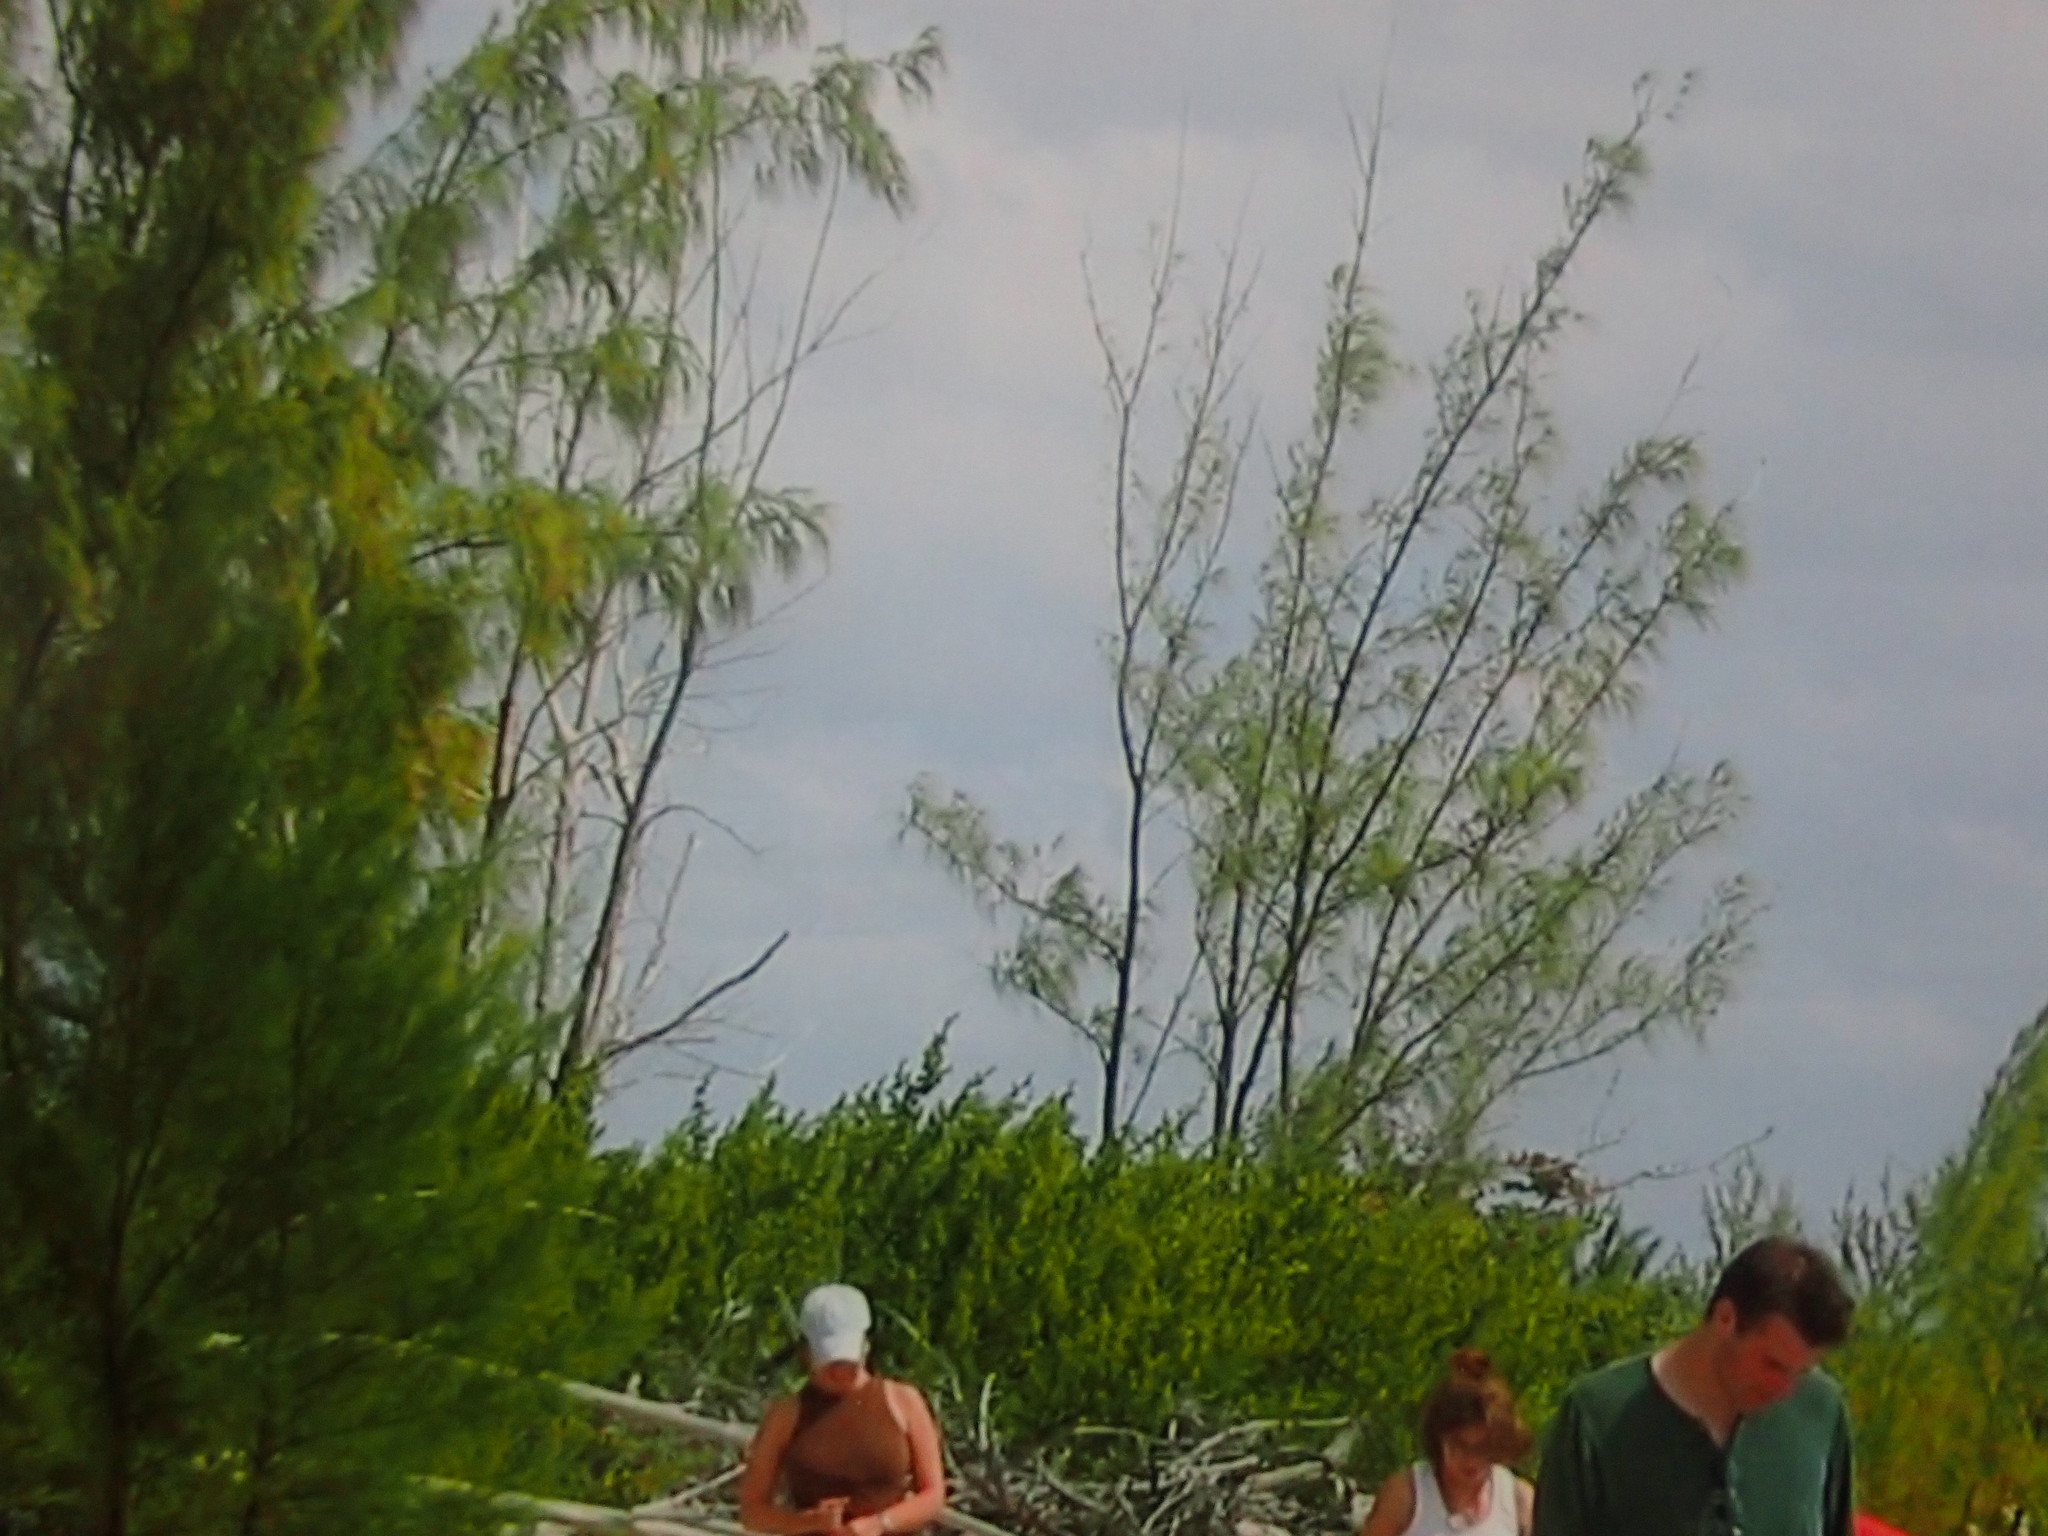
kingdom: Plantae
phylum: Tracheophyta
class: Magnoliopsida
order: Fagales
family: Casuarinaceae
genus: Casuarina
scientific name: Casuarina equisetifolia
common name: Beach sheoak
